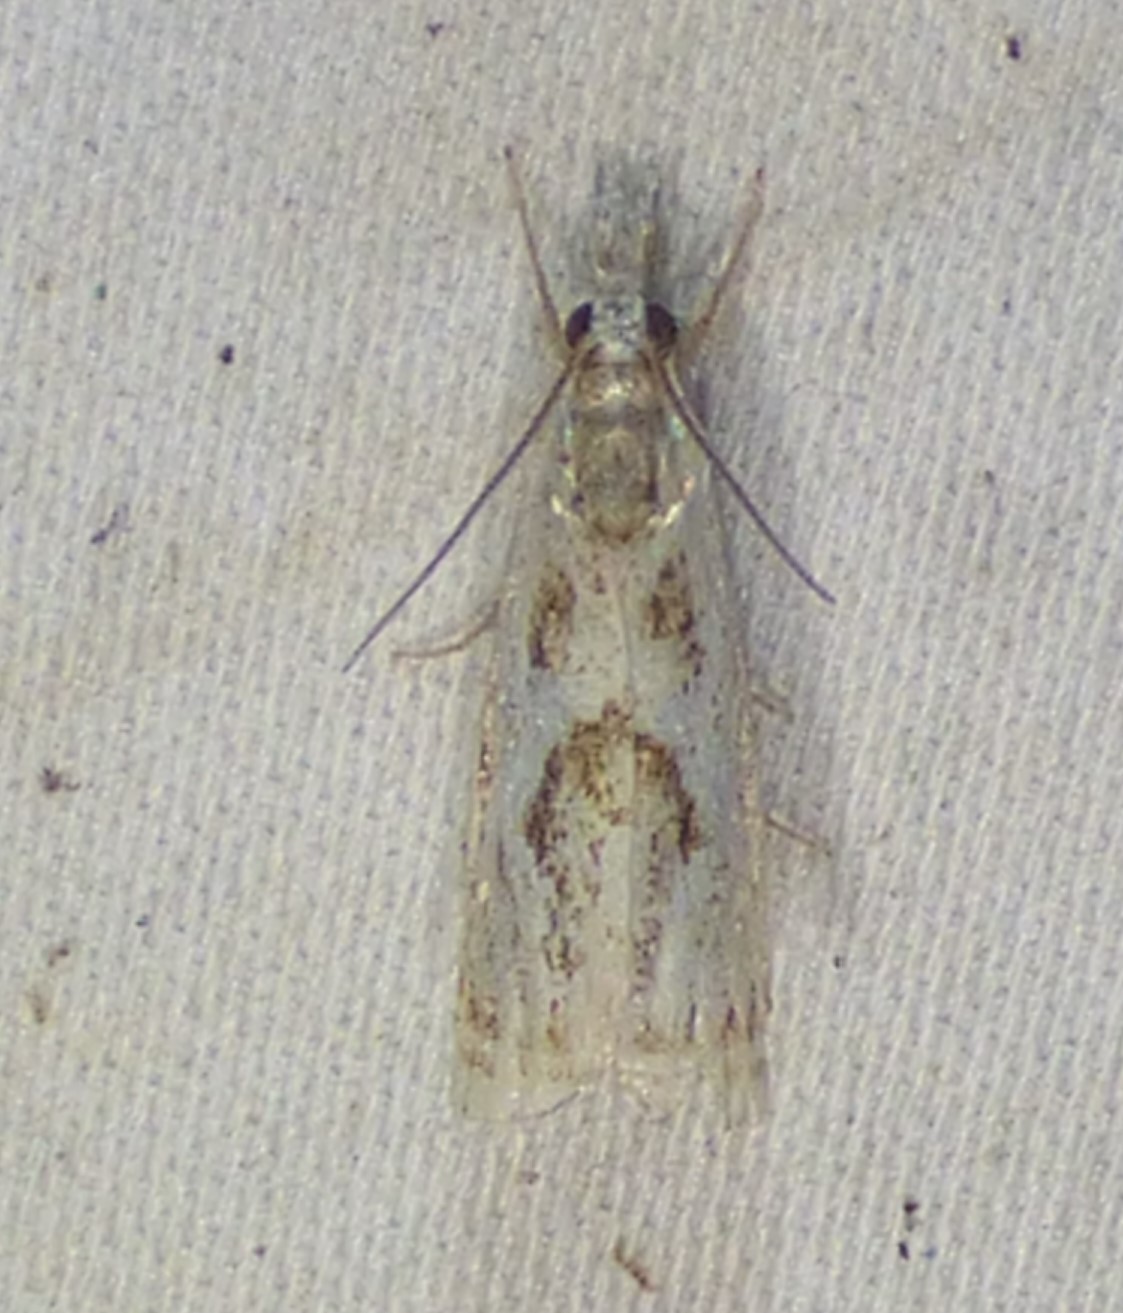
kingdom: Animalia
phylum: Arthropoda
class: Insecta
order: Lepidoptera
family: Crambidae
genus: Microcrambus
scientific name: Microcrambus elegans
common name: Elegant grass-veneer
